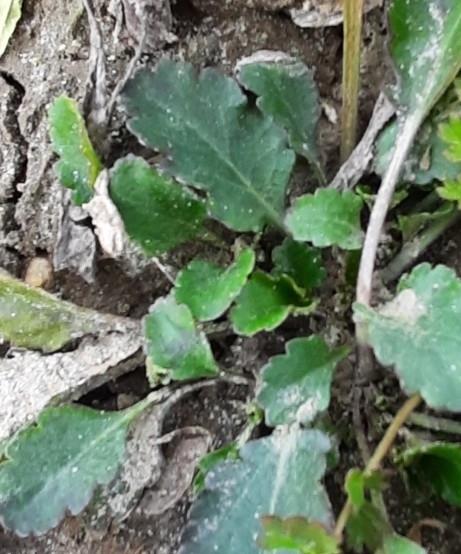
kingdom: Plantae
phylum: Tracheophyta
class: Magnoliopsida
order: Asterales
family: Asteraceae
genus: Leucanthemum
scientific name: Leucanthemum ircutianum
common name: Daisy
